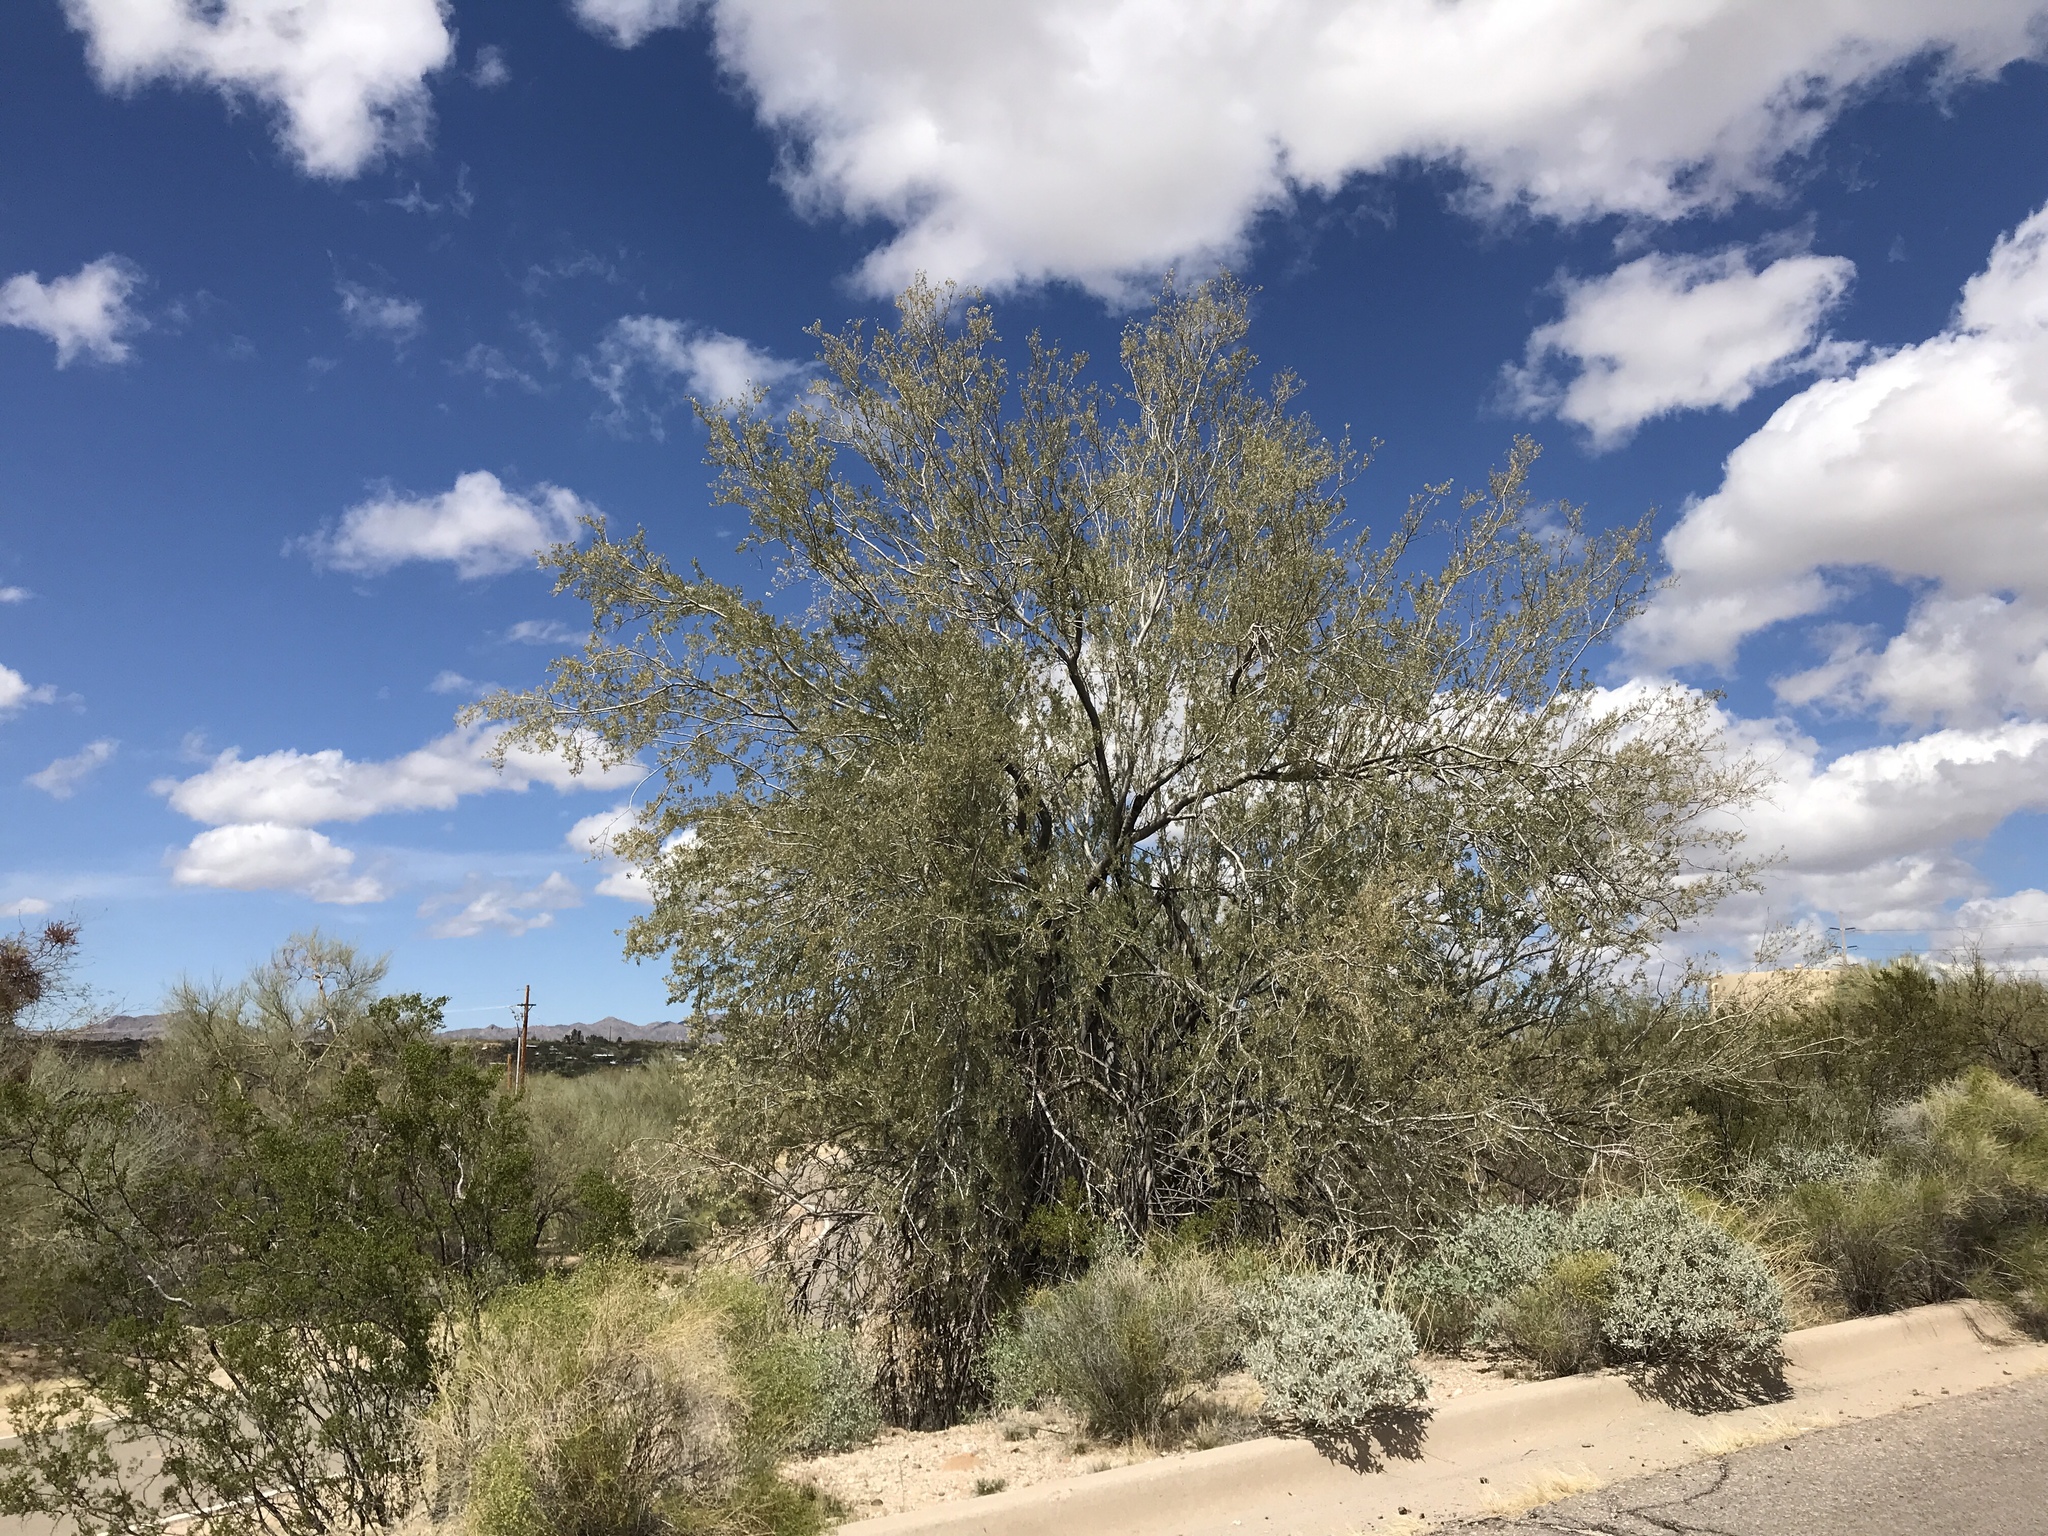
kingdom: Plantae
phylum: Tracheophyta
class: Magnoliopsida
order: Fabales
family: Fabaceae
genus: Olneya
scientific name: Olneya tesota
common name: Desert ironwood
